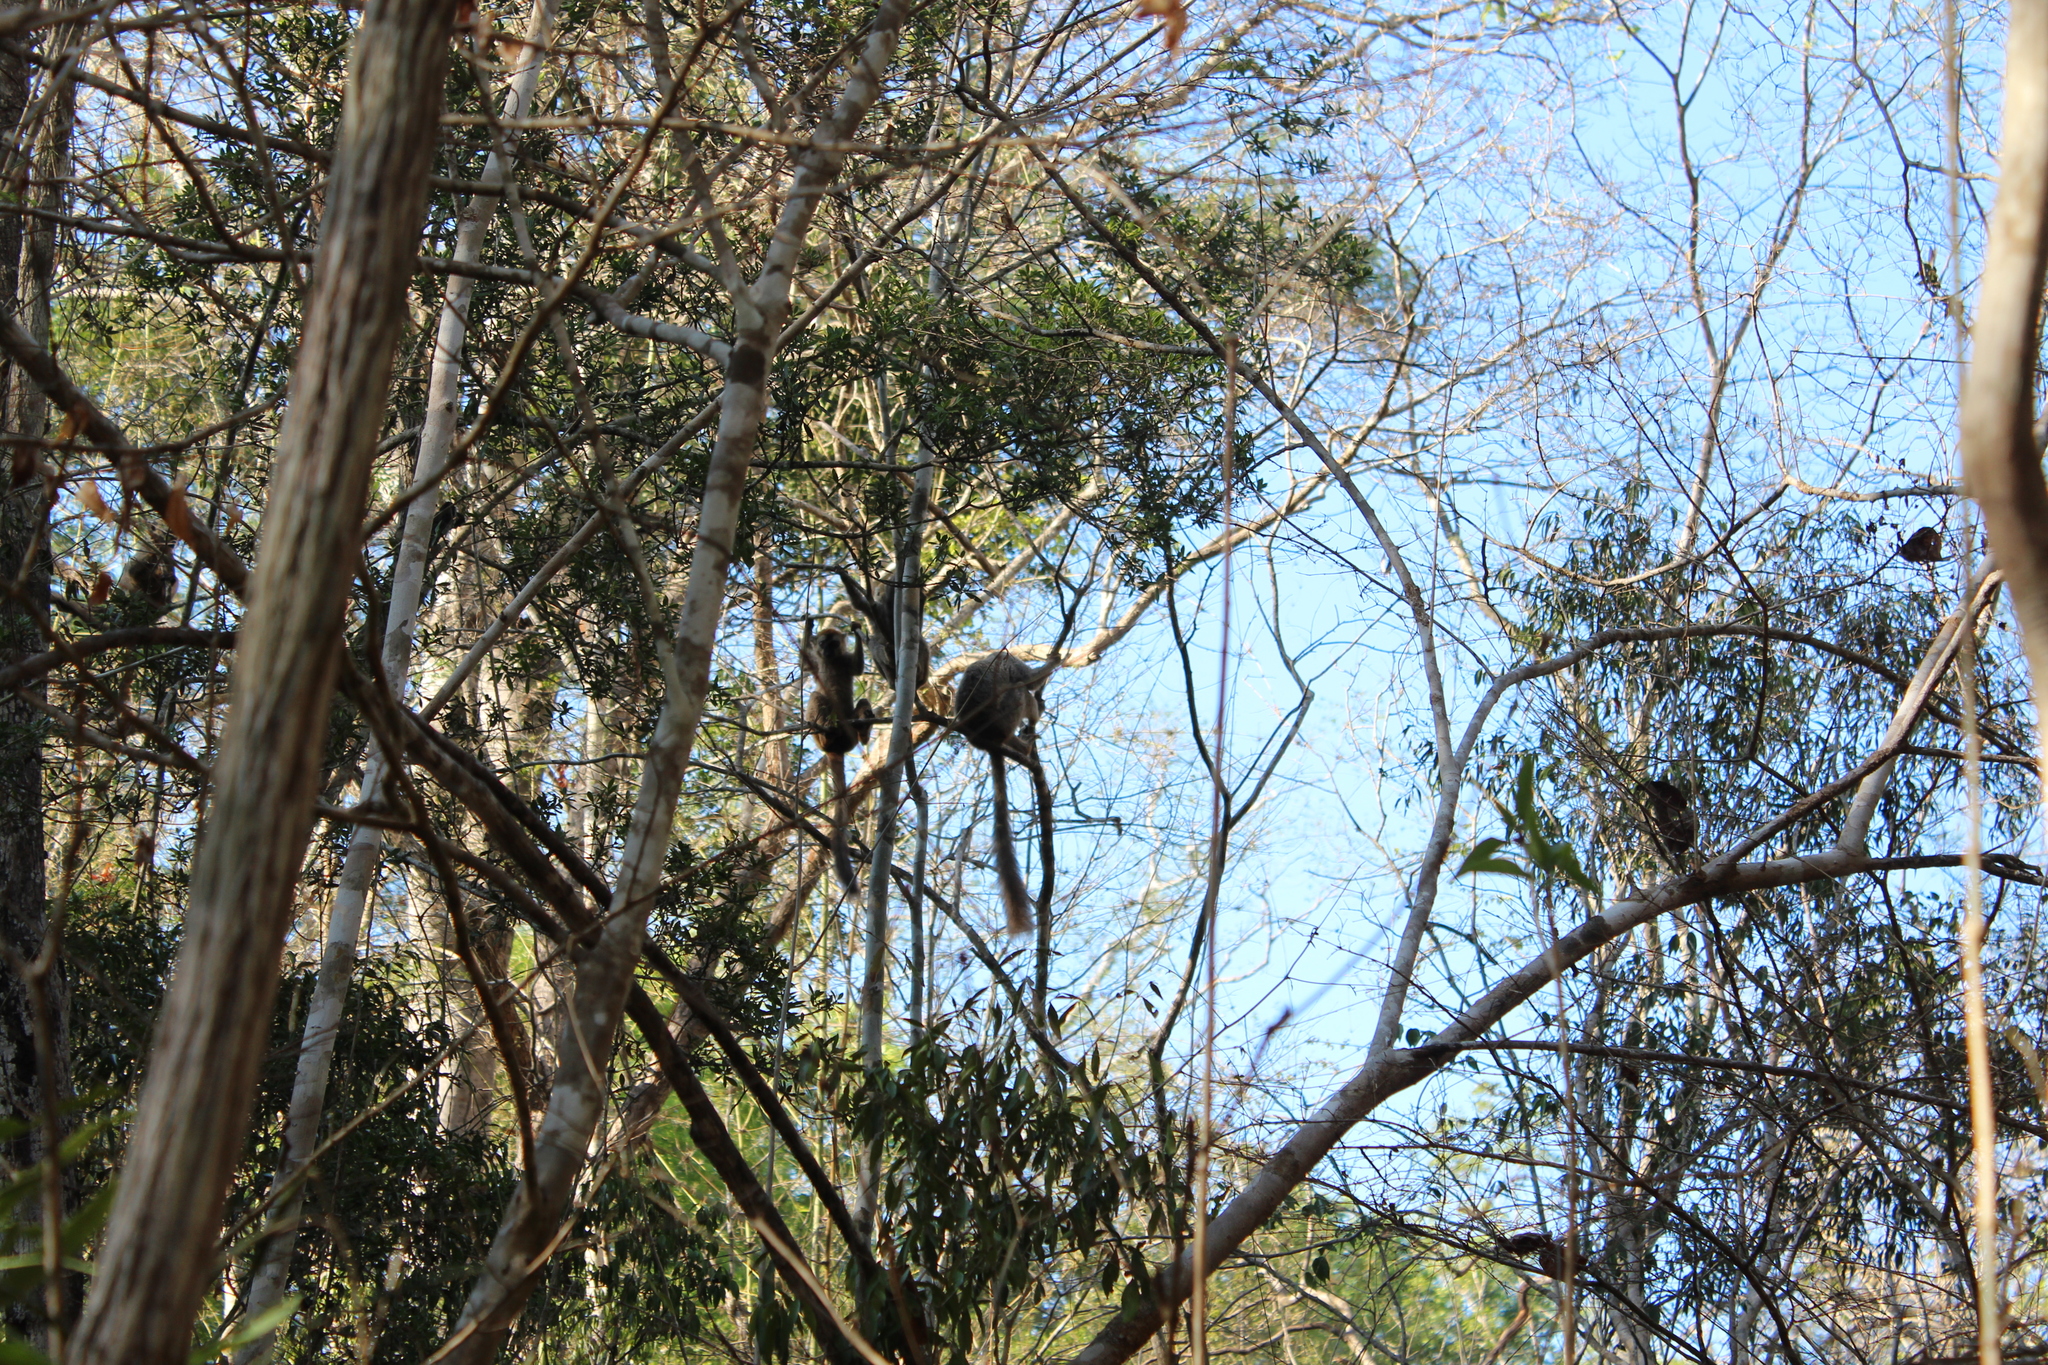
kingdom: Animalia
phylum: Chordata
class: Mammalia
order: Primates
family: Lemuridae
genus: Eulemur
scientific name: Eulemur rufifrons
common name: Red-fronted brown lemur
